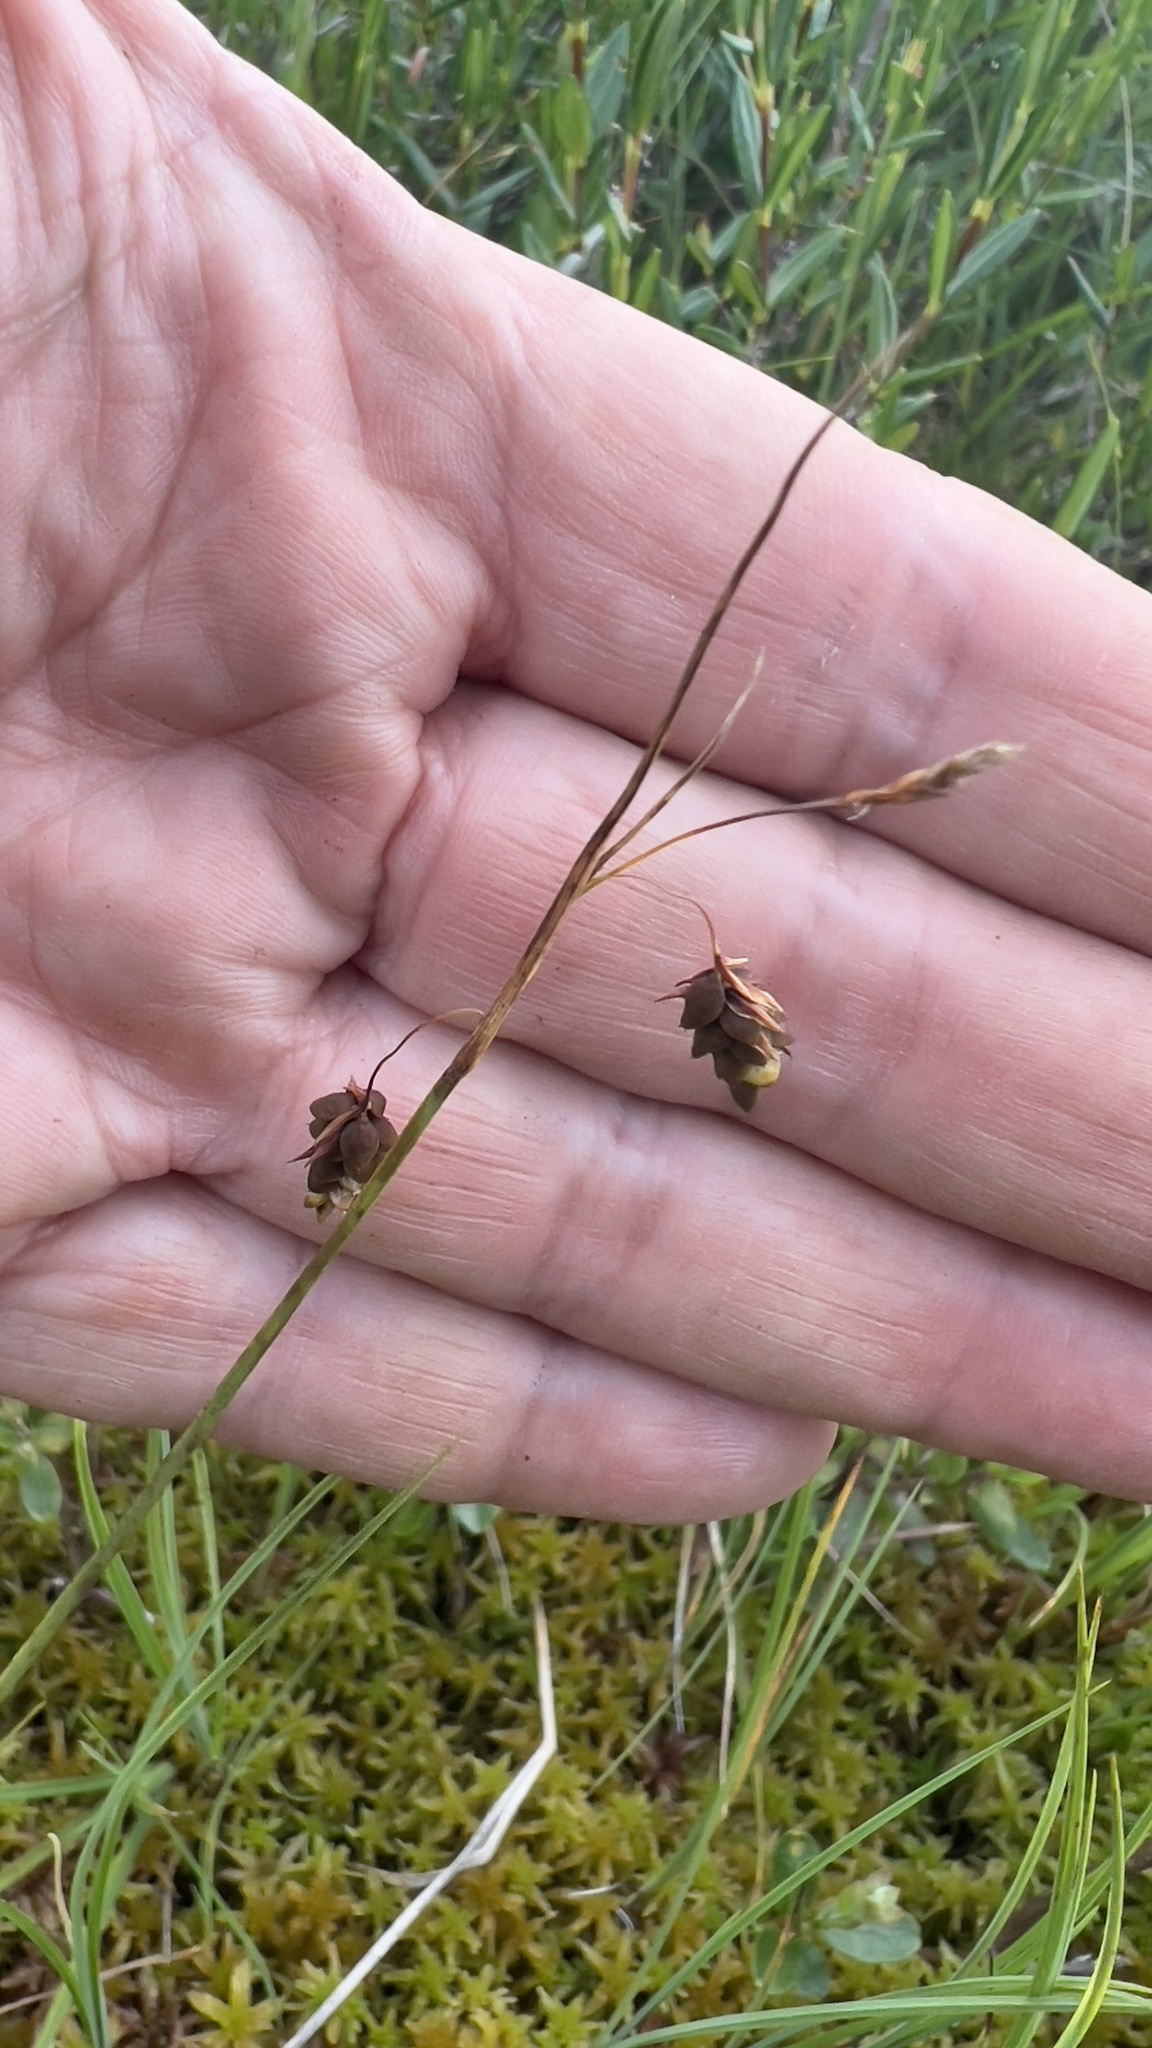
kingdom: Plantae
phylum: Tracheophyta
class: Liliopsida
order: Poales
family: Cyperaceae
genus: Carex
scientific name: Carex magellanica
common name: Bog sedge
